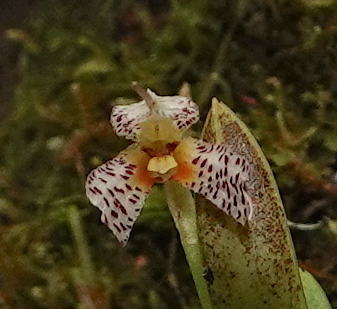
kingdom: Plantae
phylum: Tracheophyta
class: Liliopsida
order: Asparagales
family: Orchidaceae
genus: Masdevallia
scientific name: Masdevallia picturata
